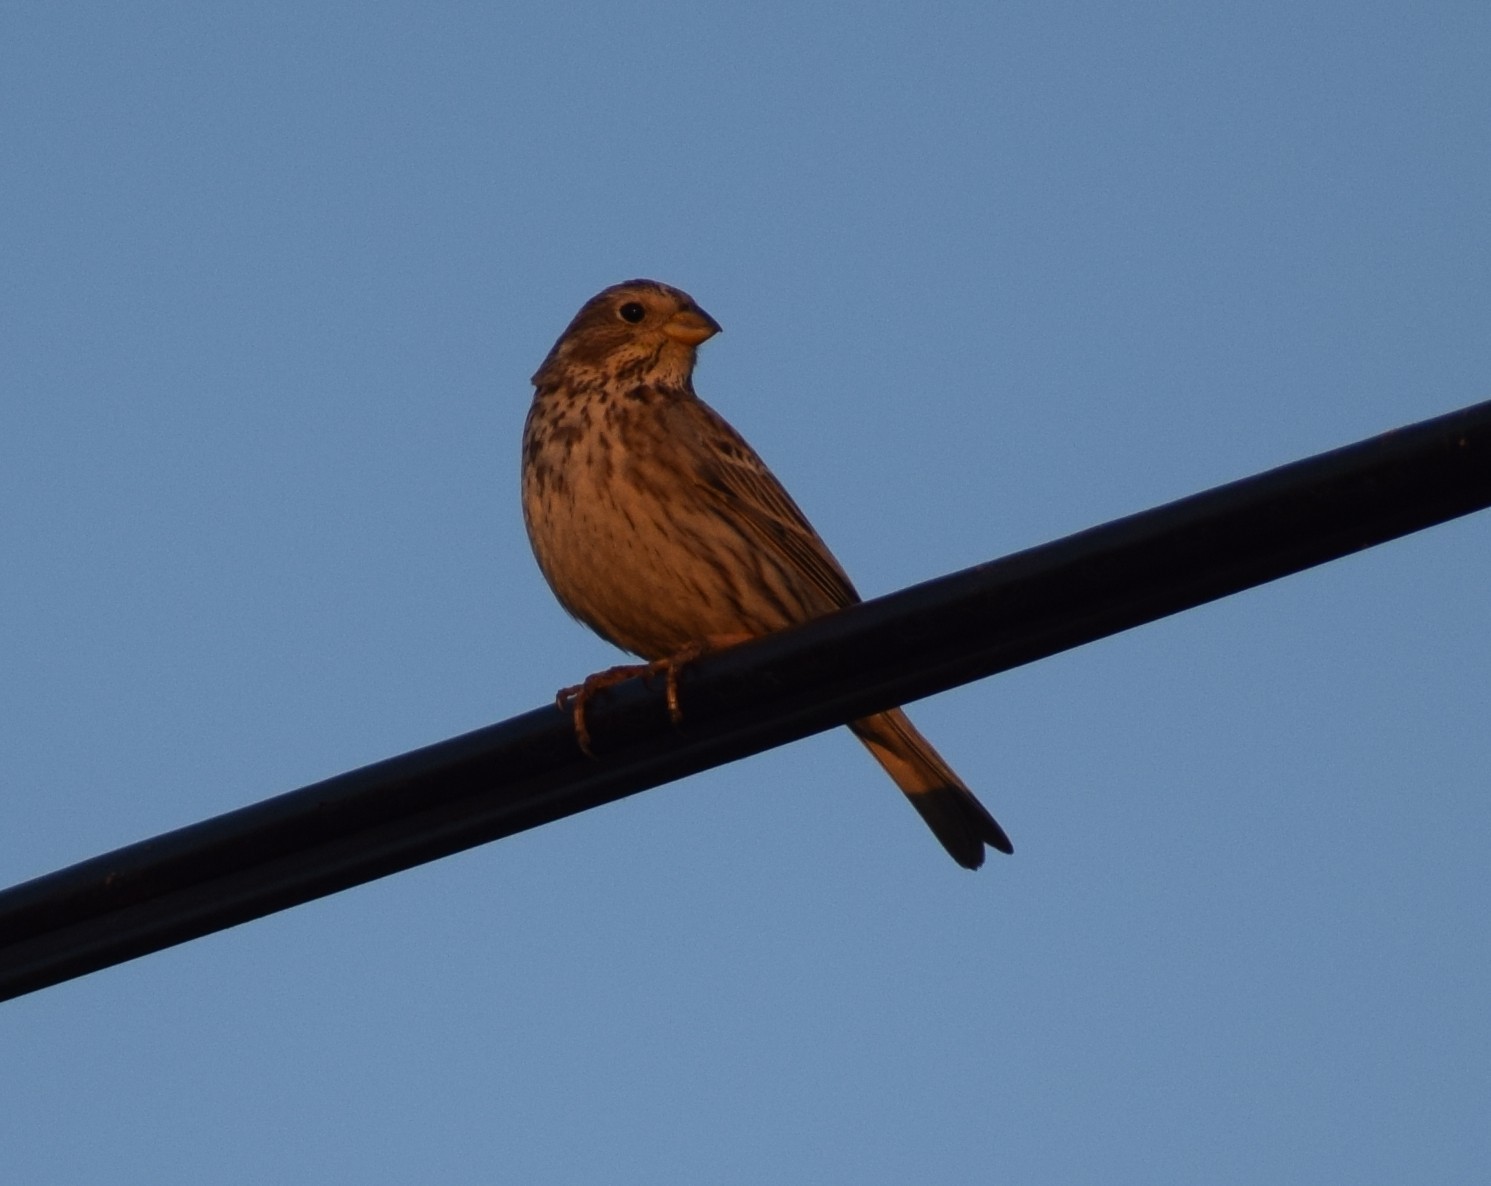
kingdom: Animalia
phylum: Chordata
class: Aves
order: Passeriformes
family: Emberizidae
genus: Emberiza
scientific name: Emberiza calandra
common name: Corn bunting
